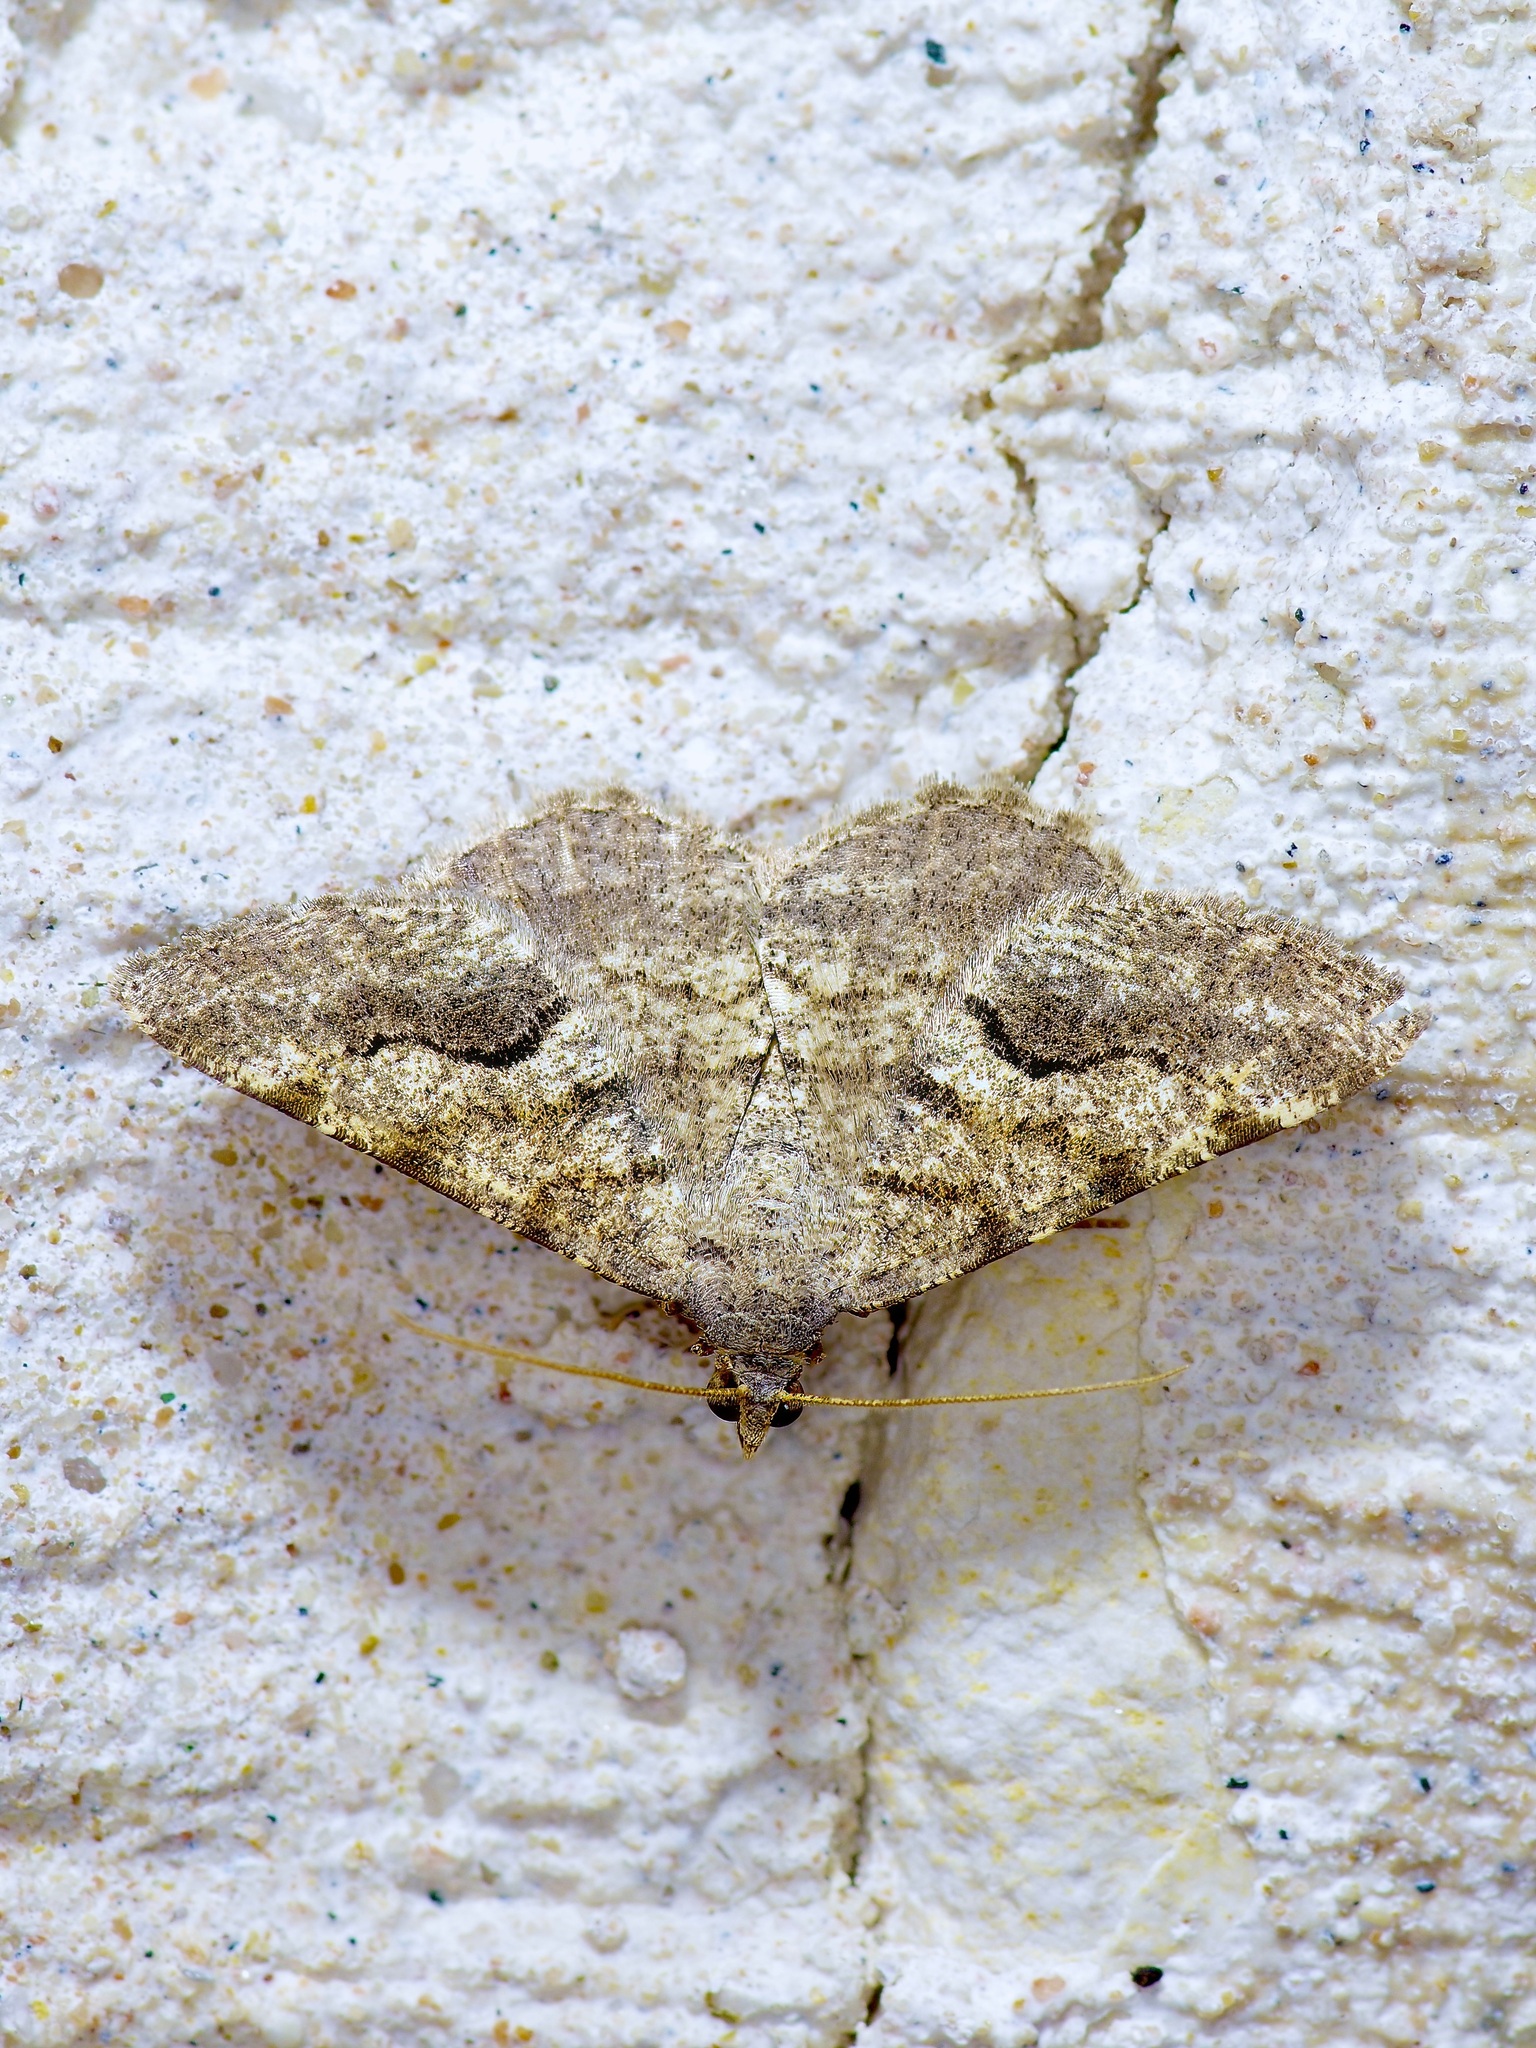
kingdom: Animalia
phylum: Arthropoda
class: Insecta
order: Lepidoptera
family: Geometridae
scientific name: Geometridae
